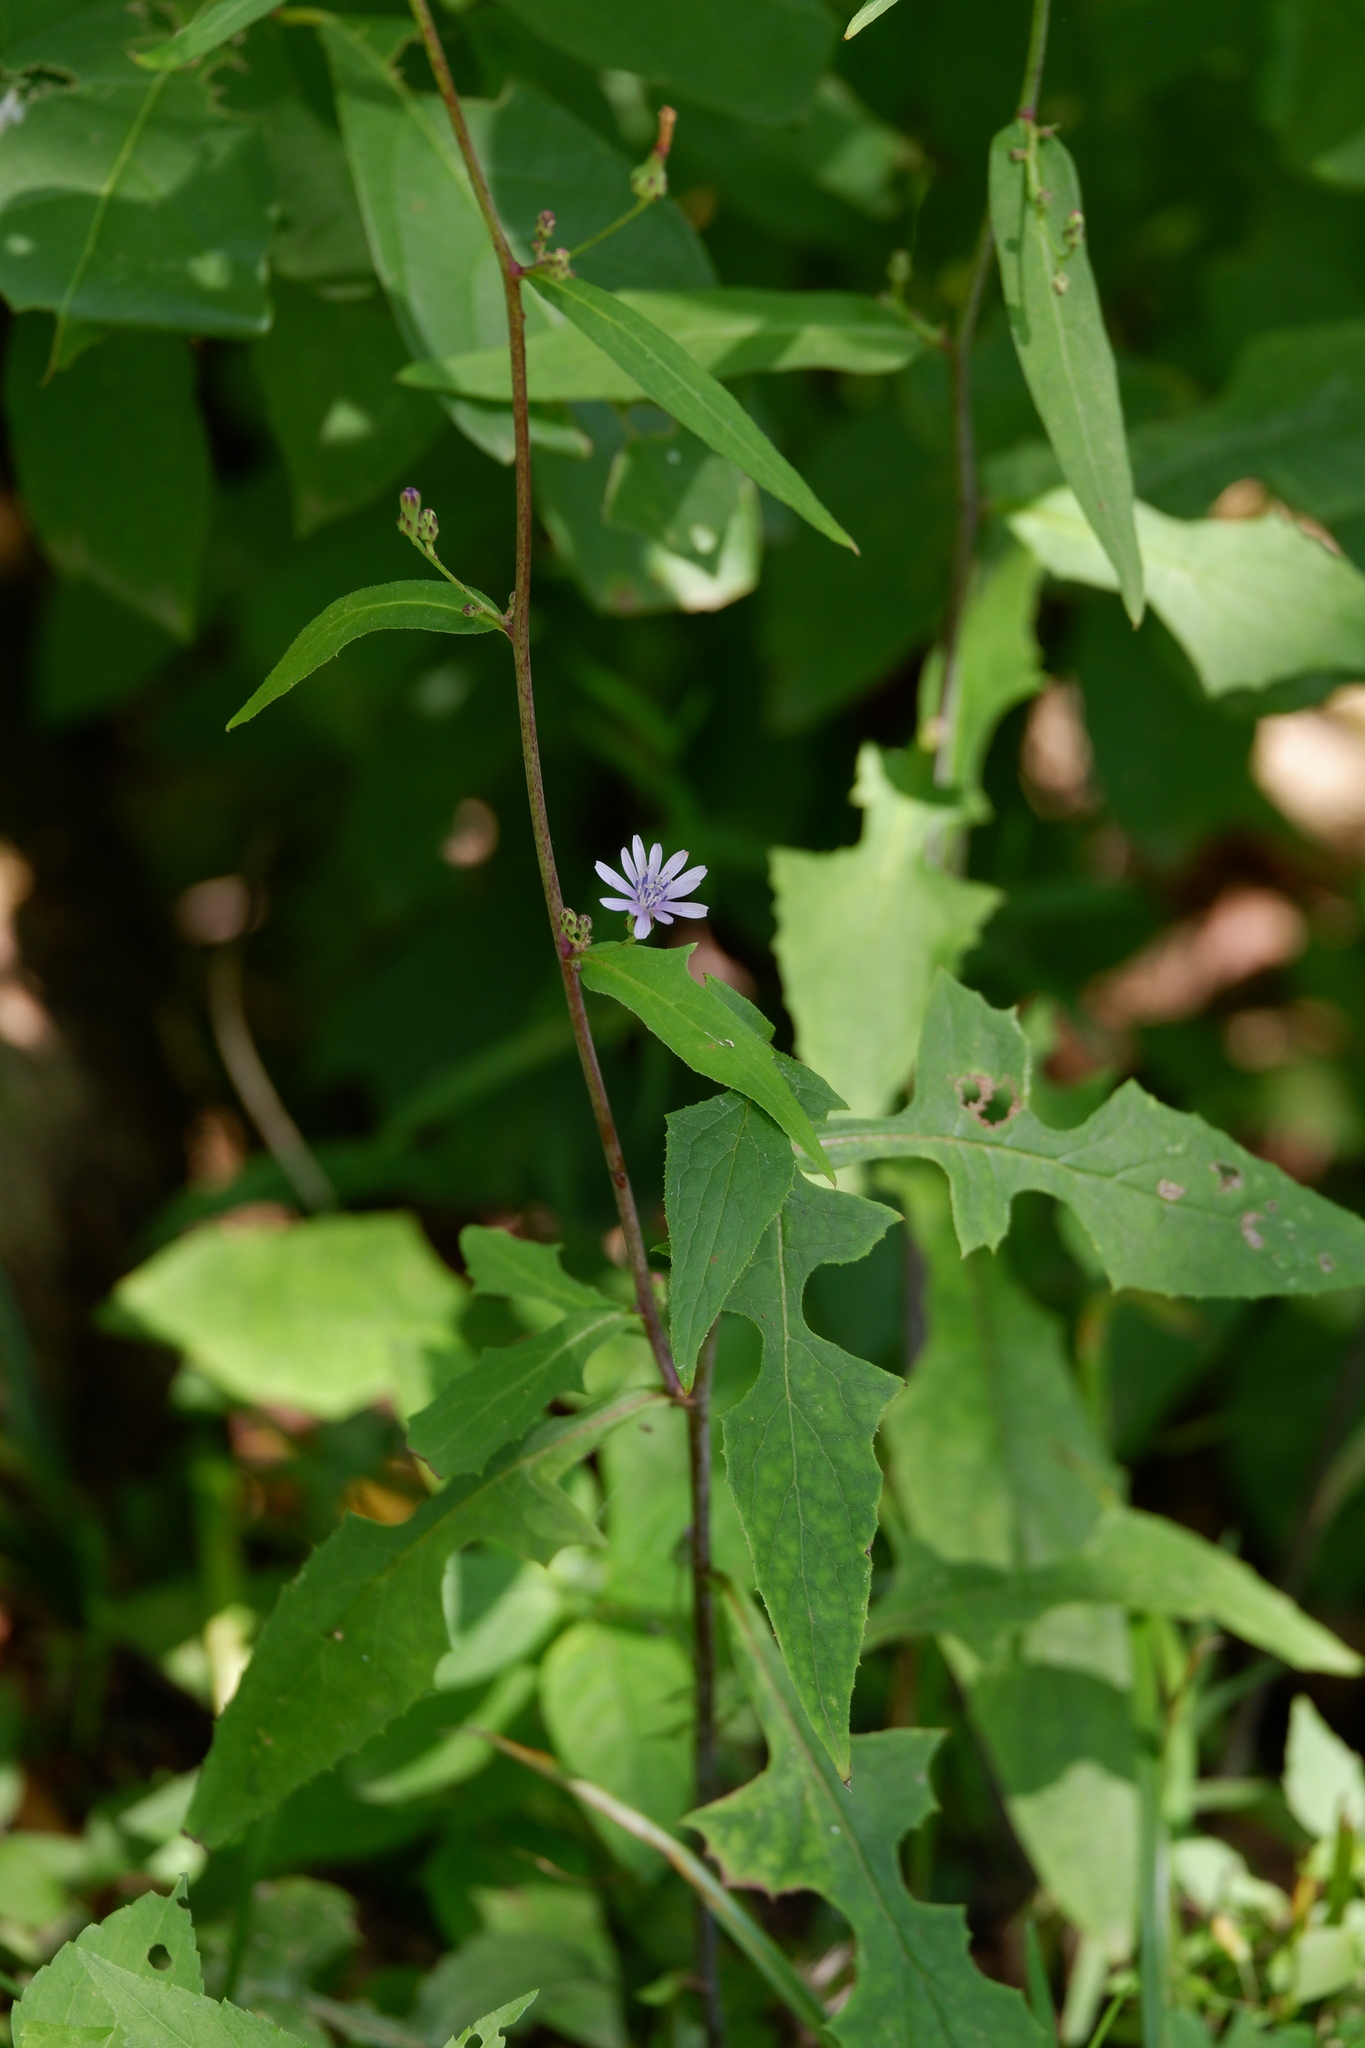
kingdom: Plantae
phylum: Tracheophyta
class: Magnoliopsida
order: Asterales
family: Asteraceae
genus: Lactuca
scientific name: Lactuca floridana
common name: Woodland lettuce
